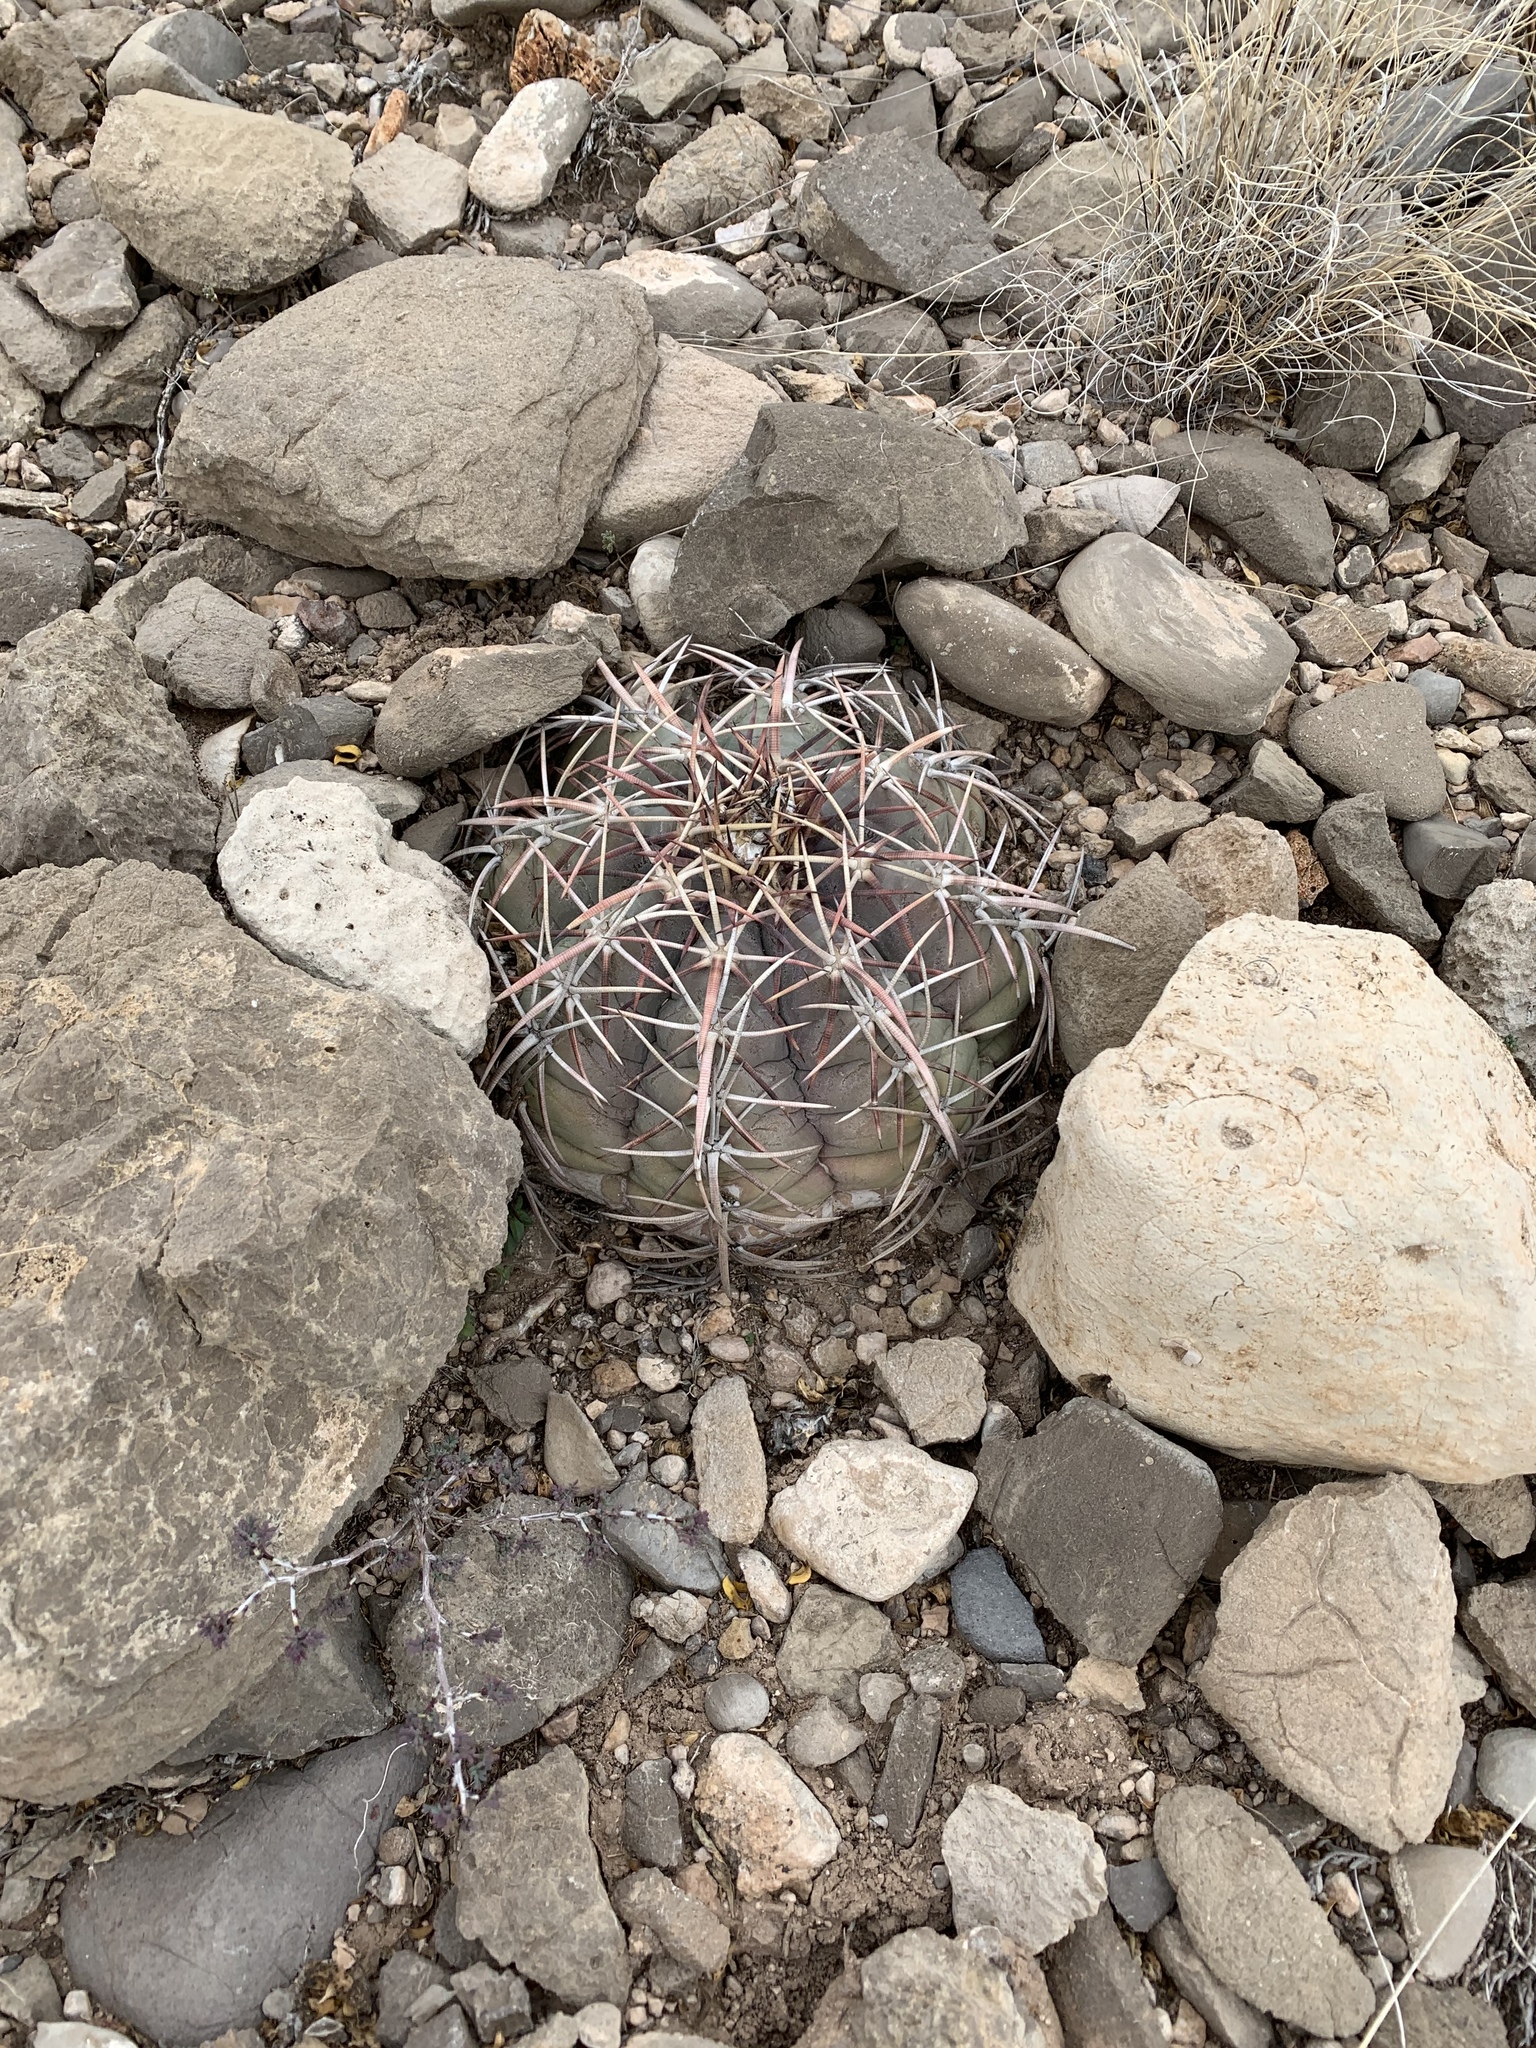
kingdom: Plantae
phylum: Tracheophyta
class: Magnoliopsida
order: Caryophyllales
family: Cactaceae
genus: Echinocactus
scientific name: Echinocactus horizonthalonius
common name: Devilshead
